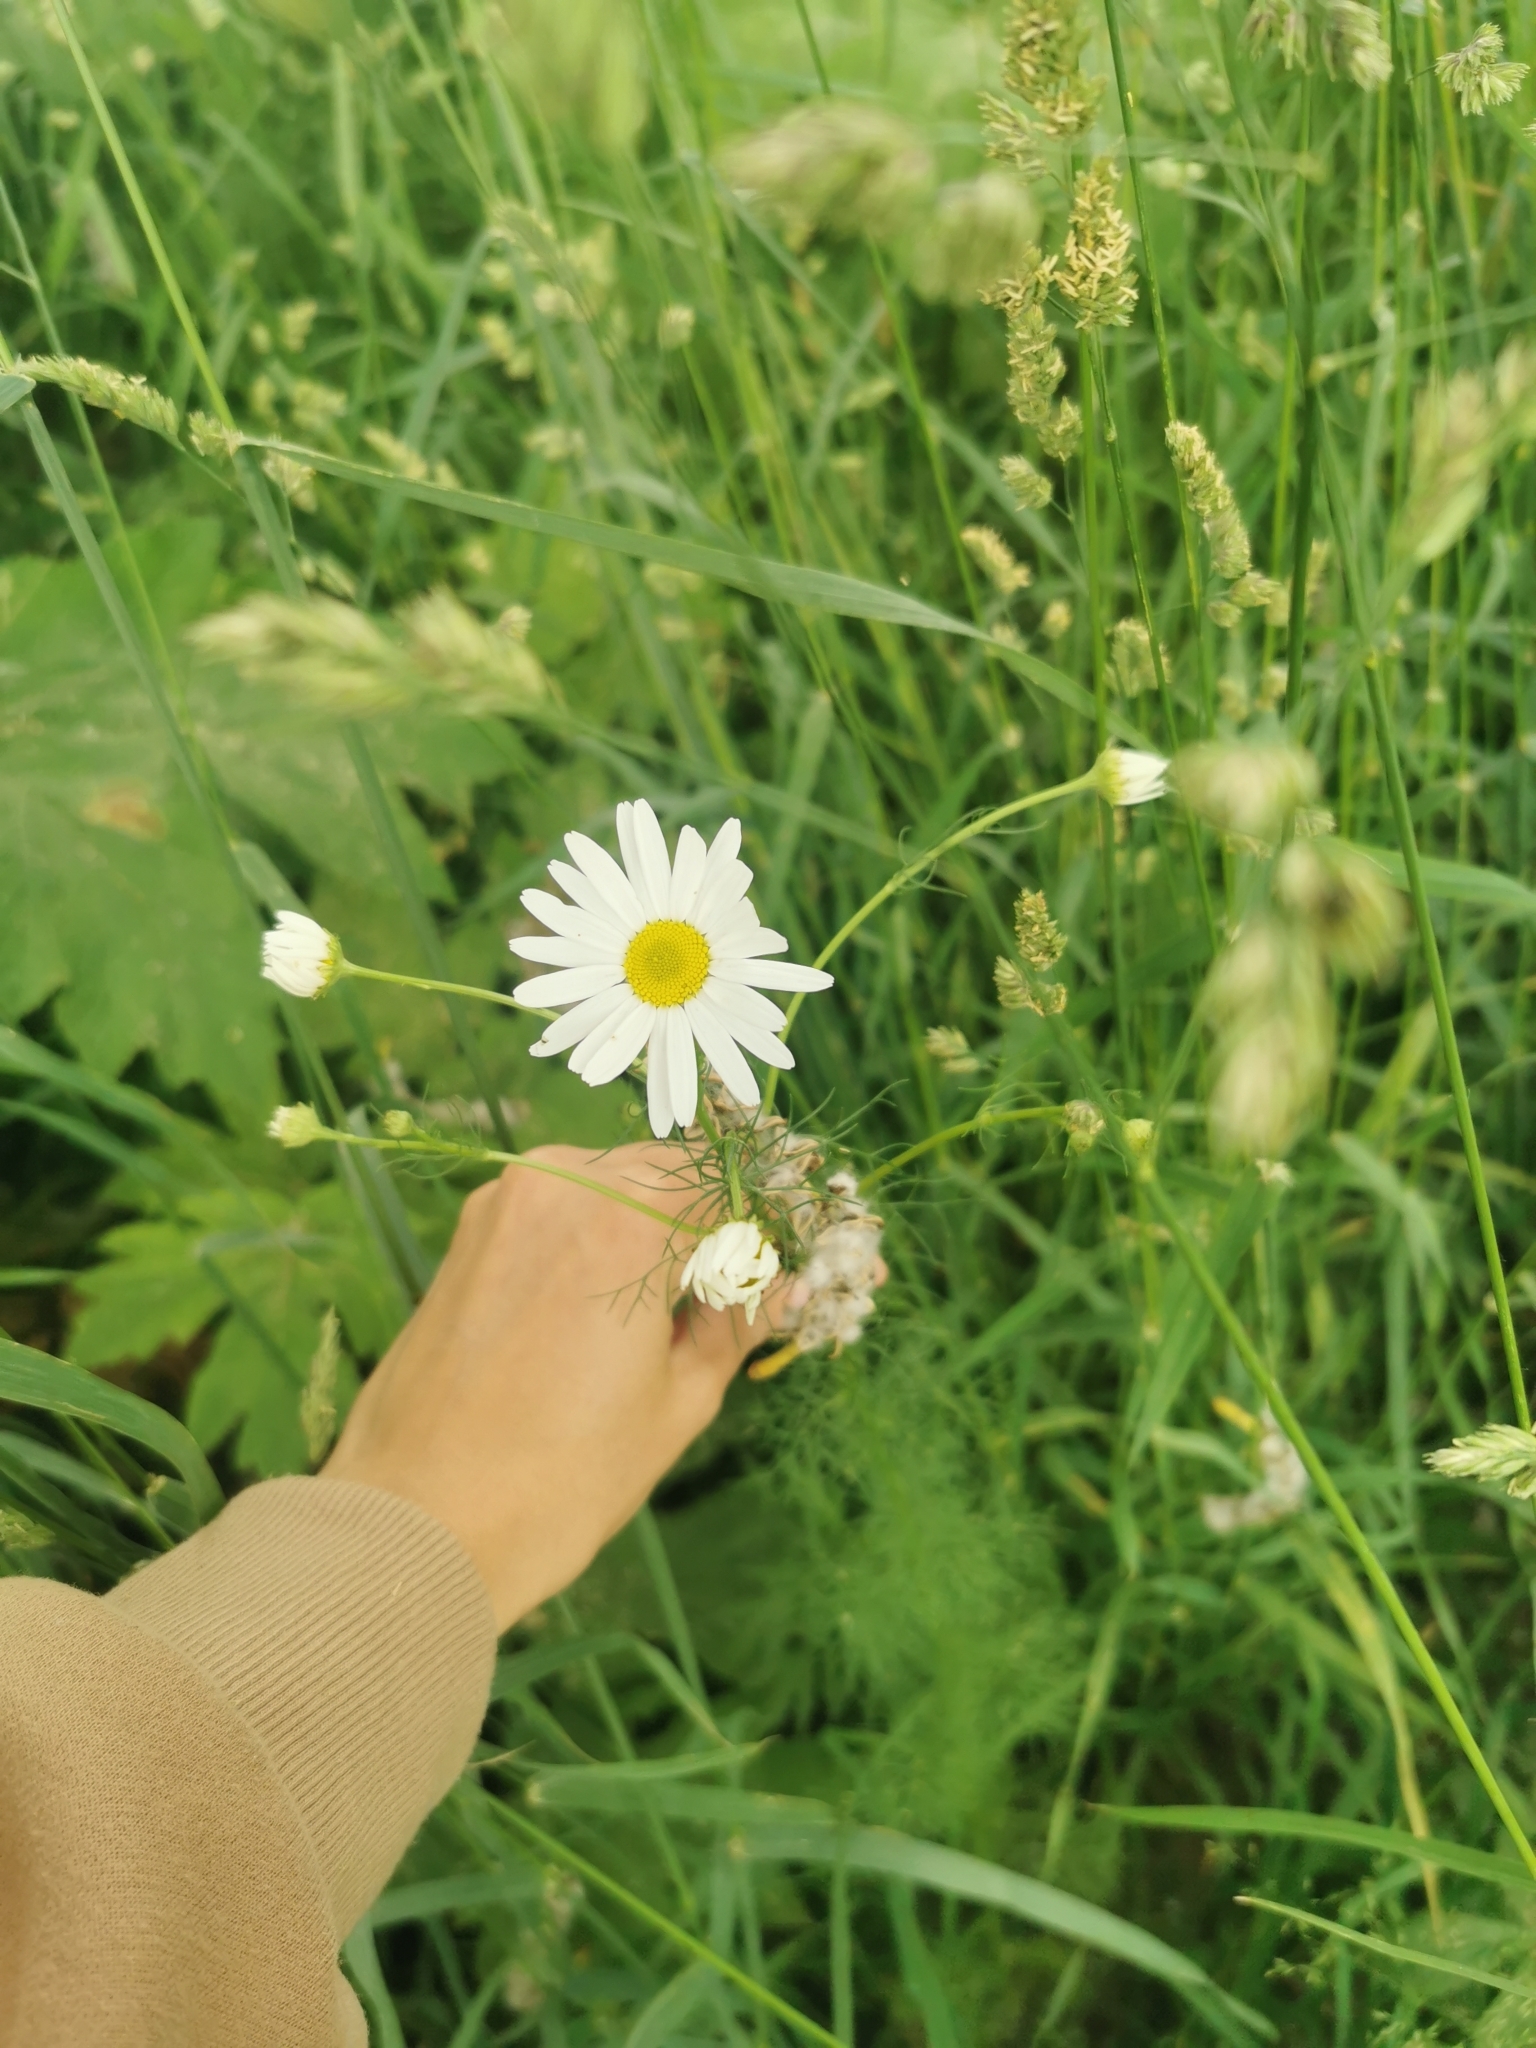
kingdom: Plantae
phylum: Tracheophyta
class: Magnoliopsida
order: Asterales
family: Asteraceae
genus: Tripleurospermum
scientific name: Tripleurospermum inodorum
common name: Scentless mayweed
